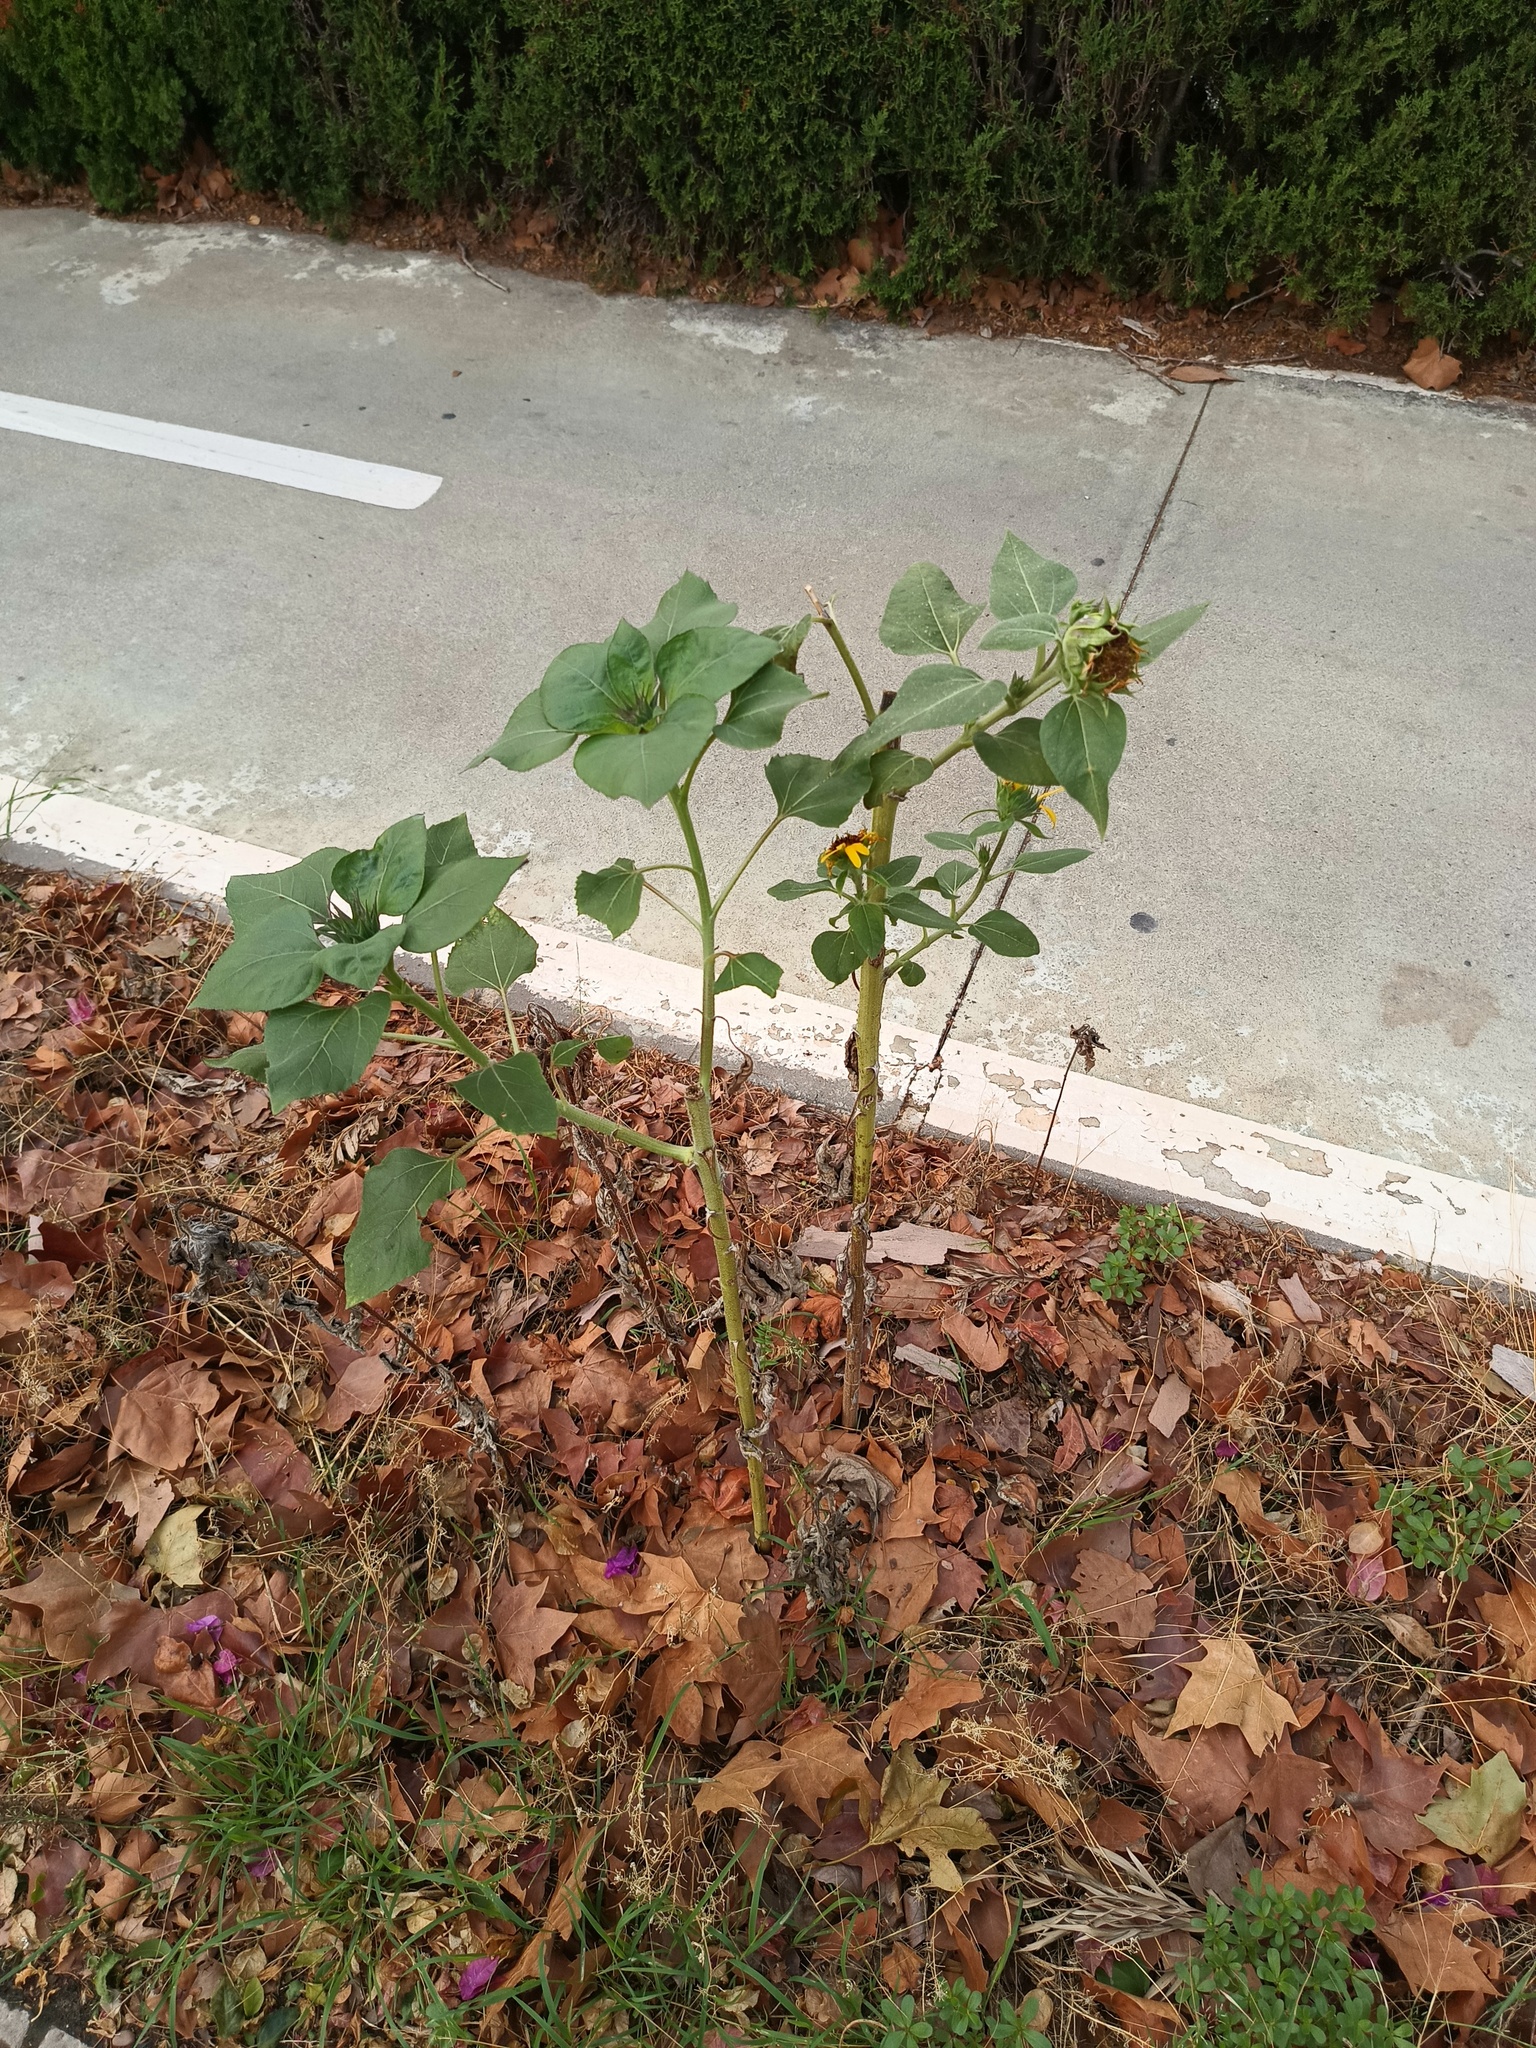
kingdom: Plantae
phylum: Tracheophyta
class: Magnoliopsida
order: Asterales
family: Asteraceae
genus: Helianthus
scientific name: Helianthus annuus
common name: Sunflower
